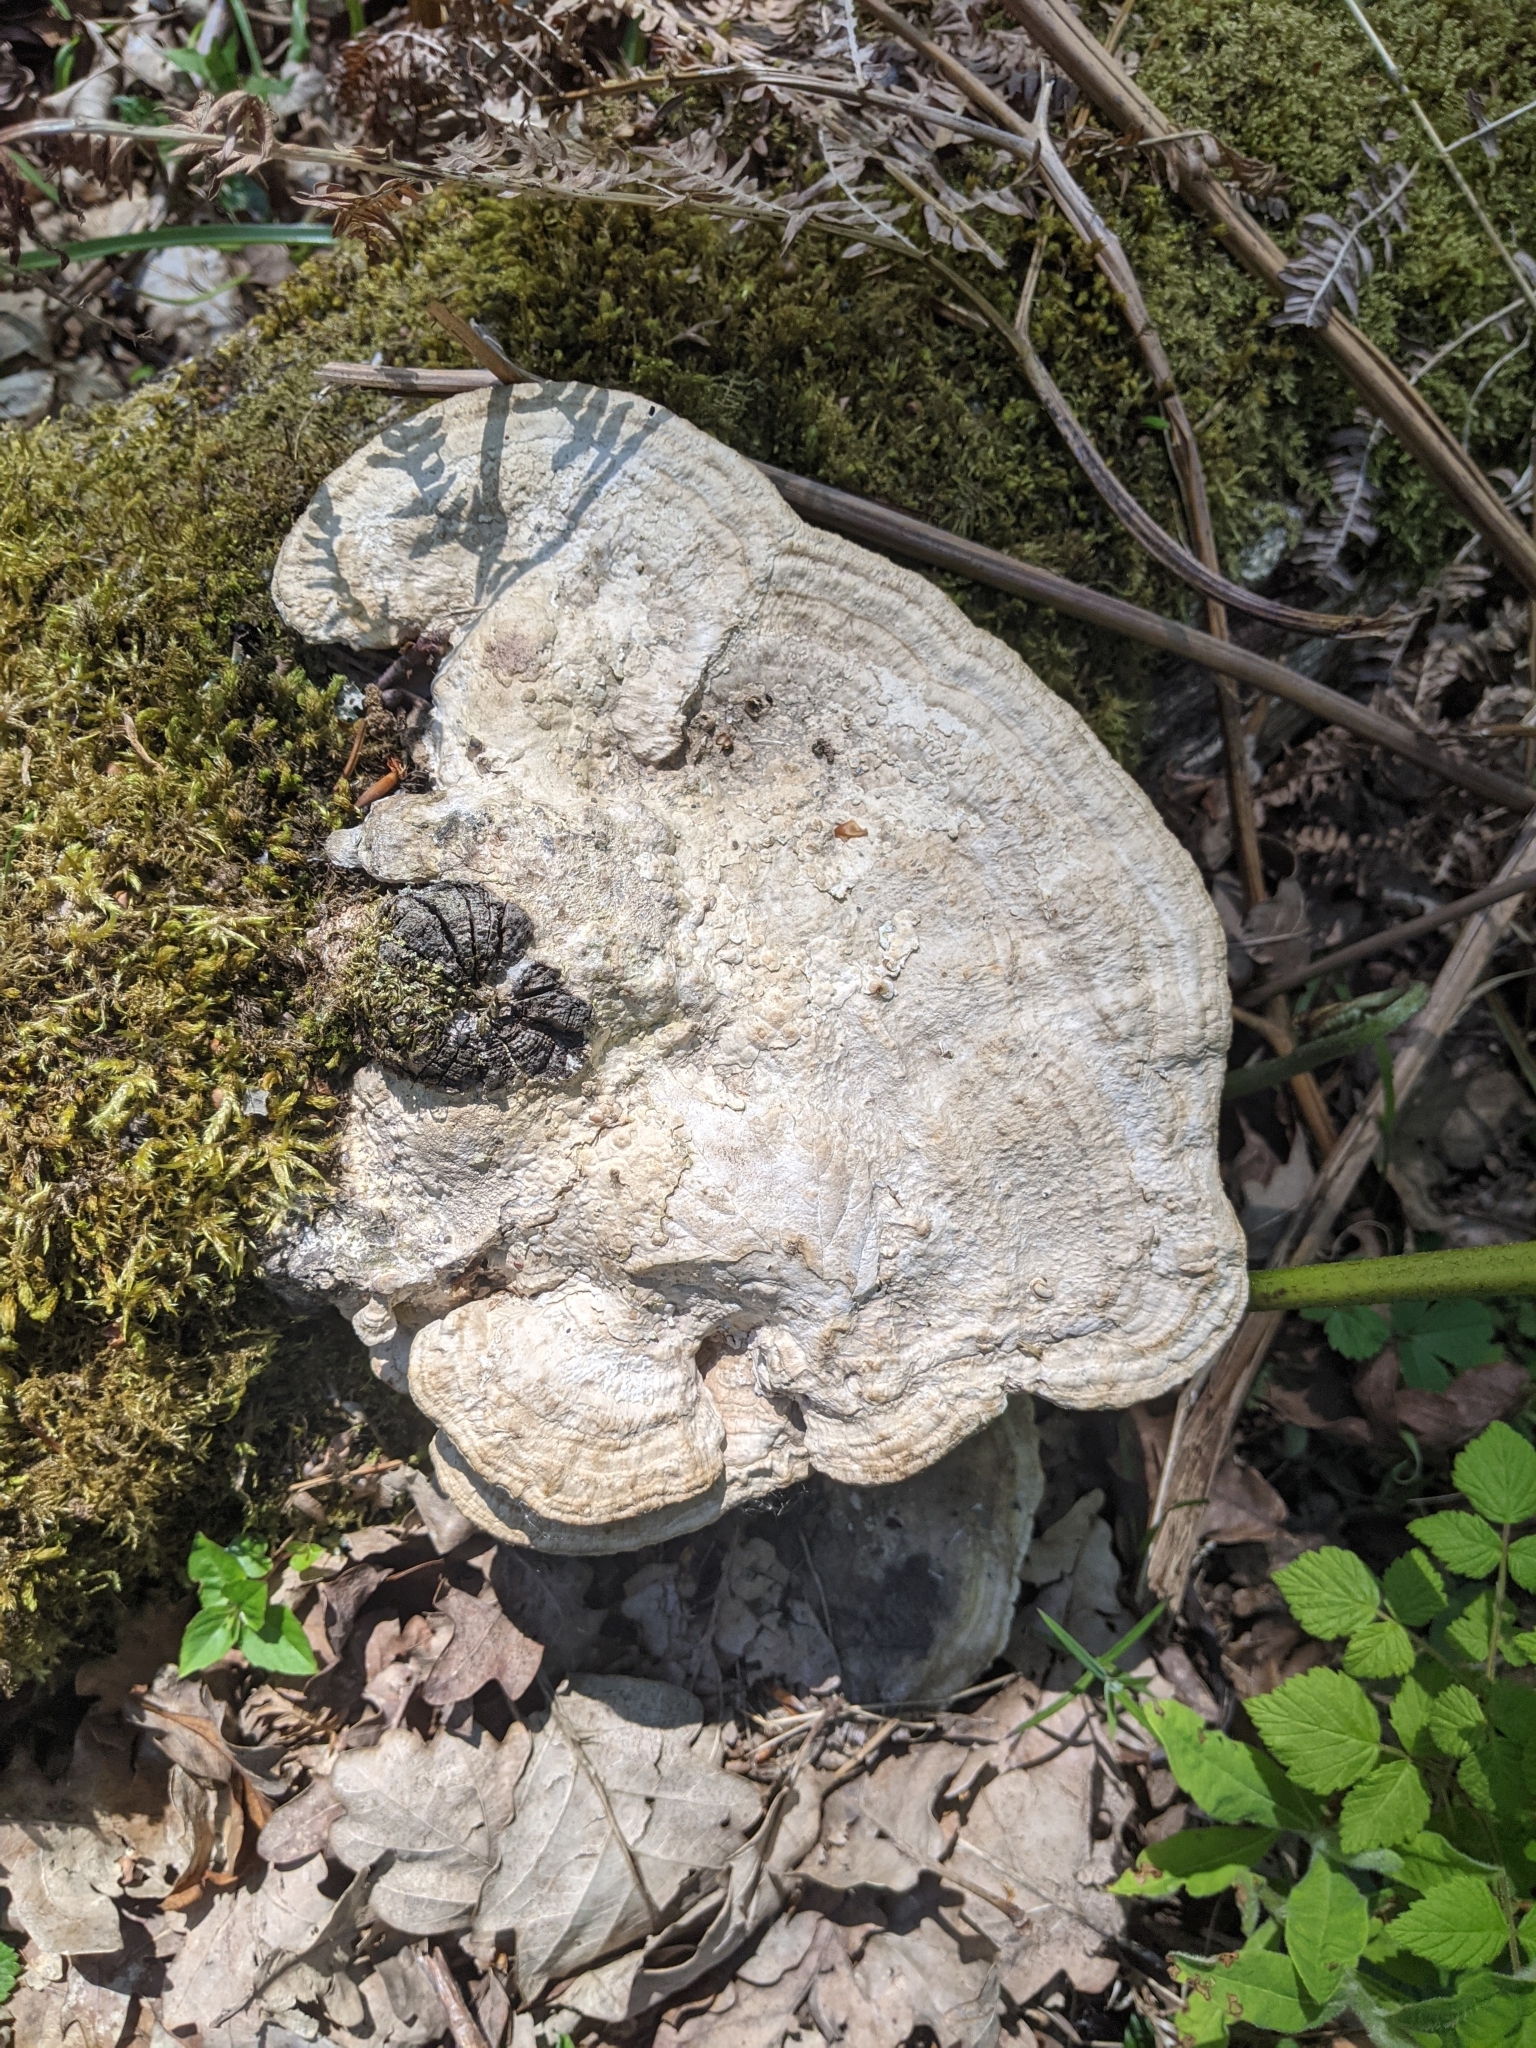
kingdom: Fungi
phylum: Basidiomycota
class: Agaricomycetes
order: Polyporales
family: Fomitopsidaceae
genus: Fomitopsis
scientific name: Fomitopsis
